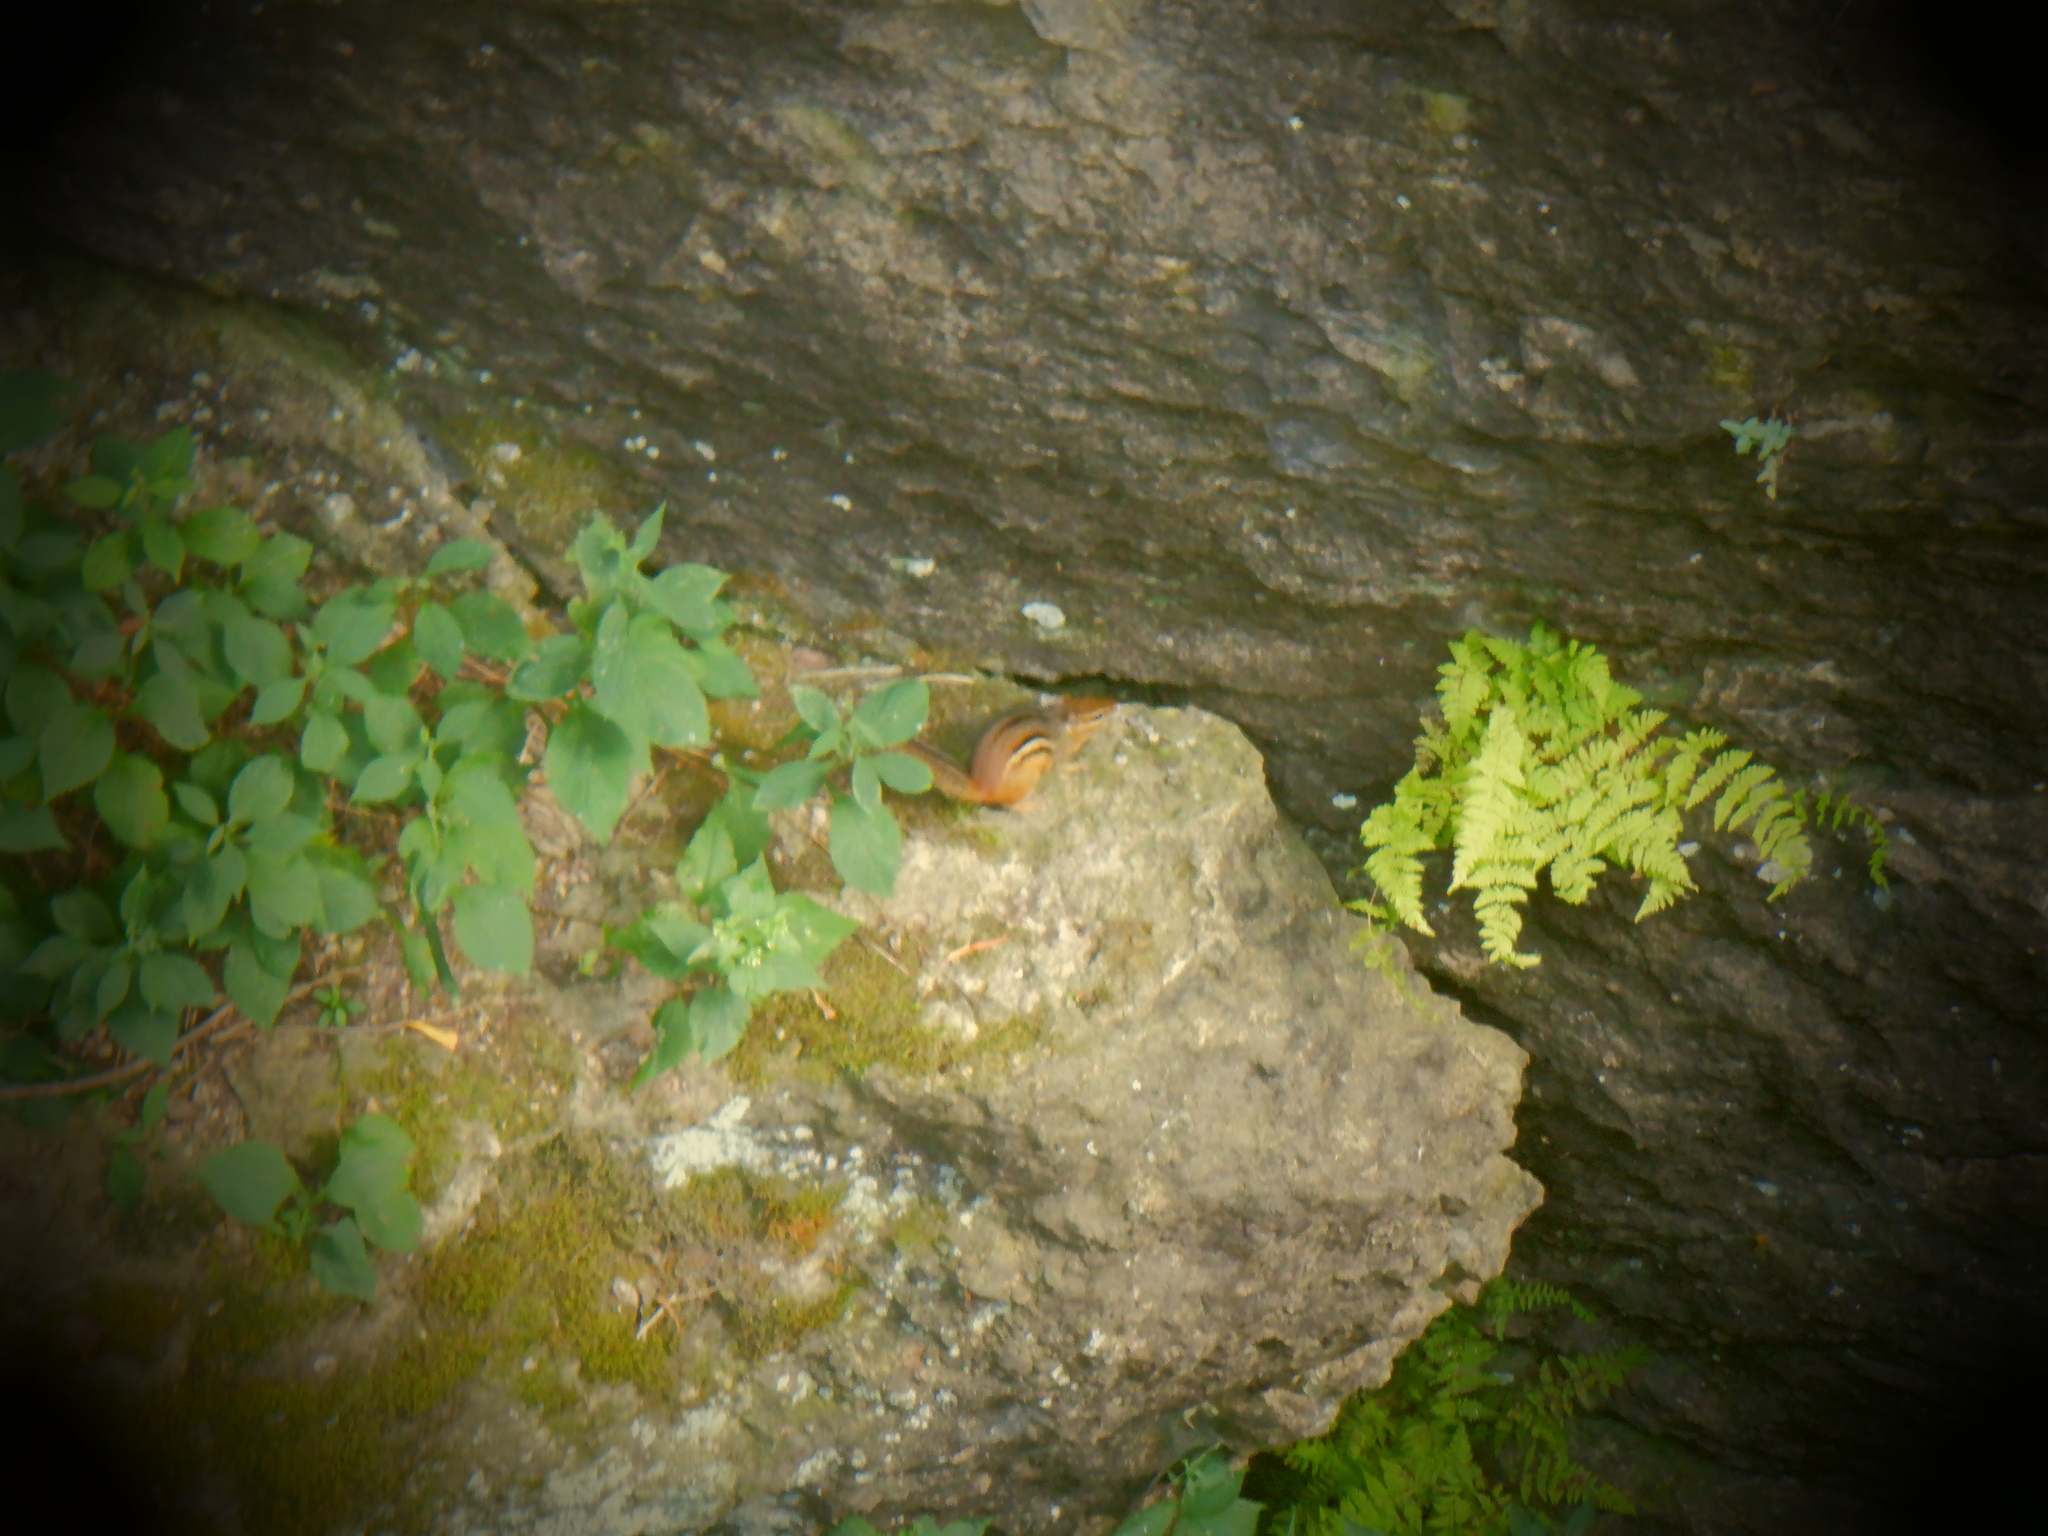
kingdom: Animalia
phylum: Chordata
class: Mammalia
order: Rodentia
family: Sciuridae
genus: Tamias
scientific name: Tamias striatus
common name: Eastern chipmunk
